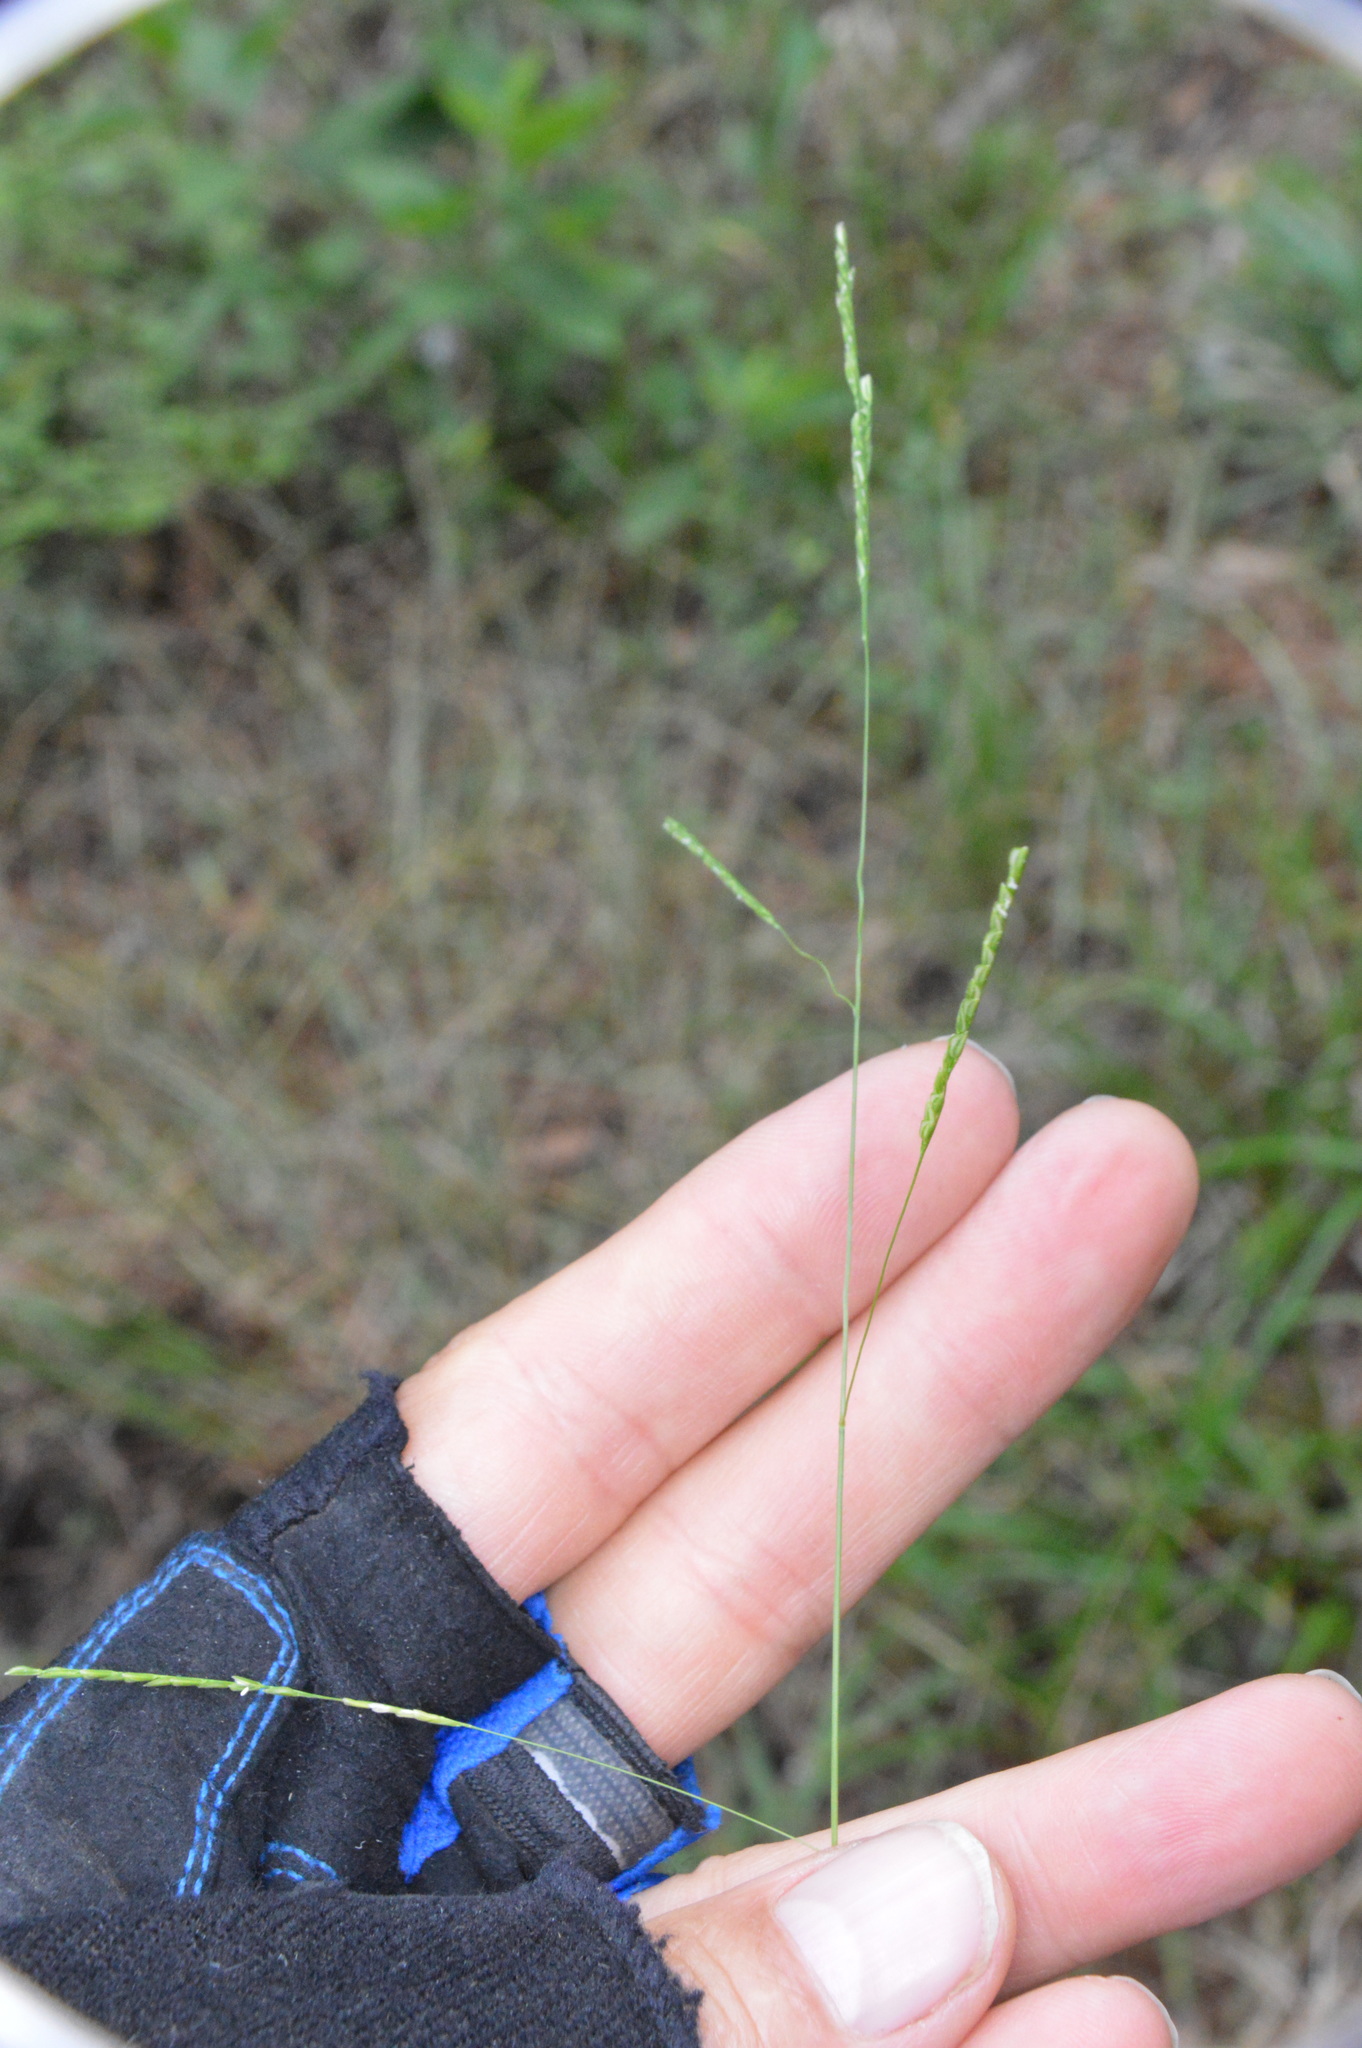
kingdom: Plantae
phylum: Tracheophyta
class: Liliopsida
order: Poales
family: Poaceae
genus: Leersia
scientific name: Leersia virginica
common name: White cutgrass
